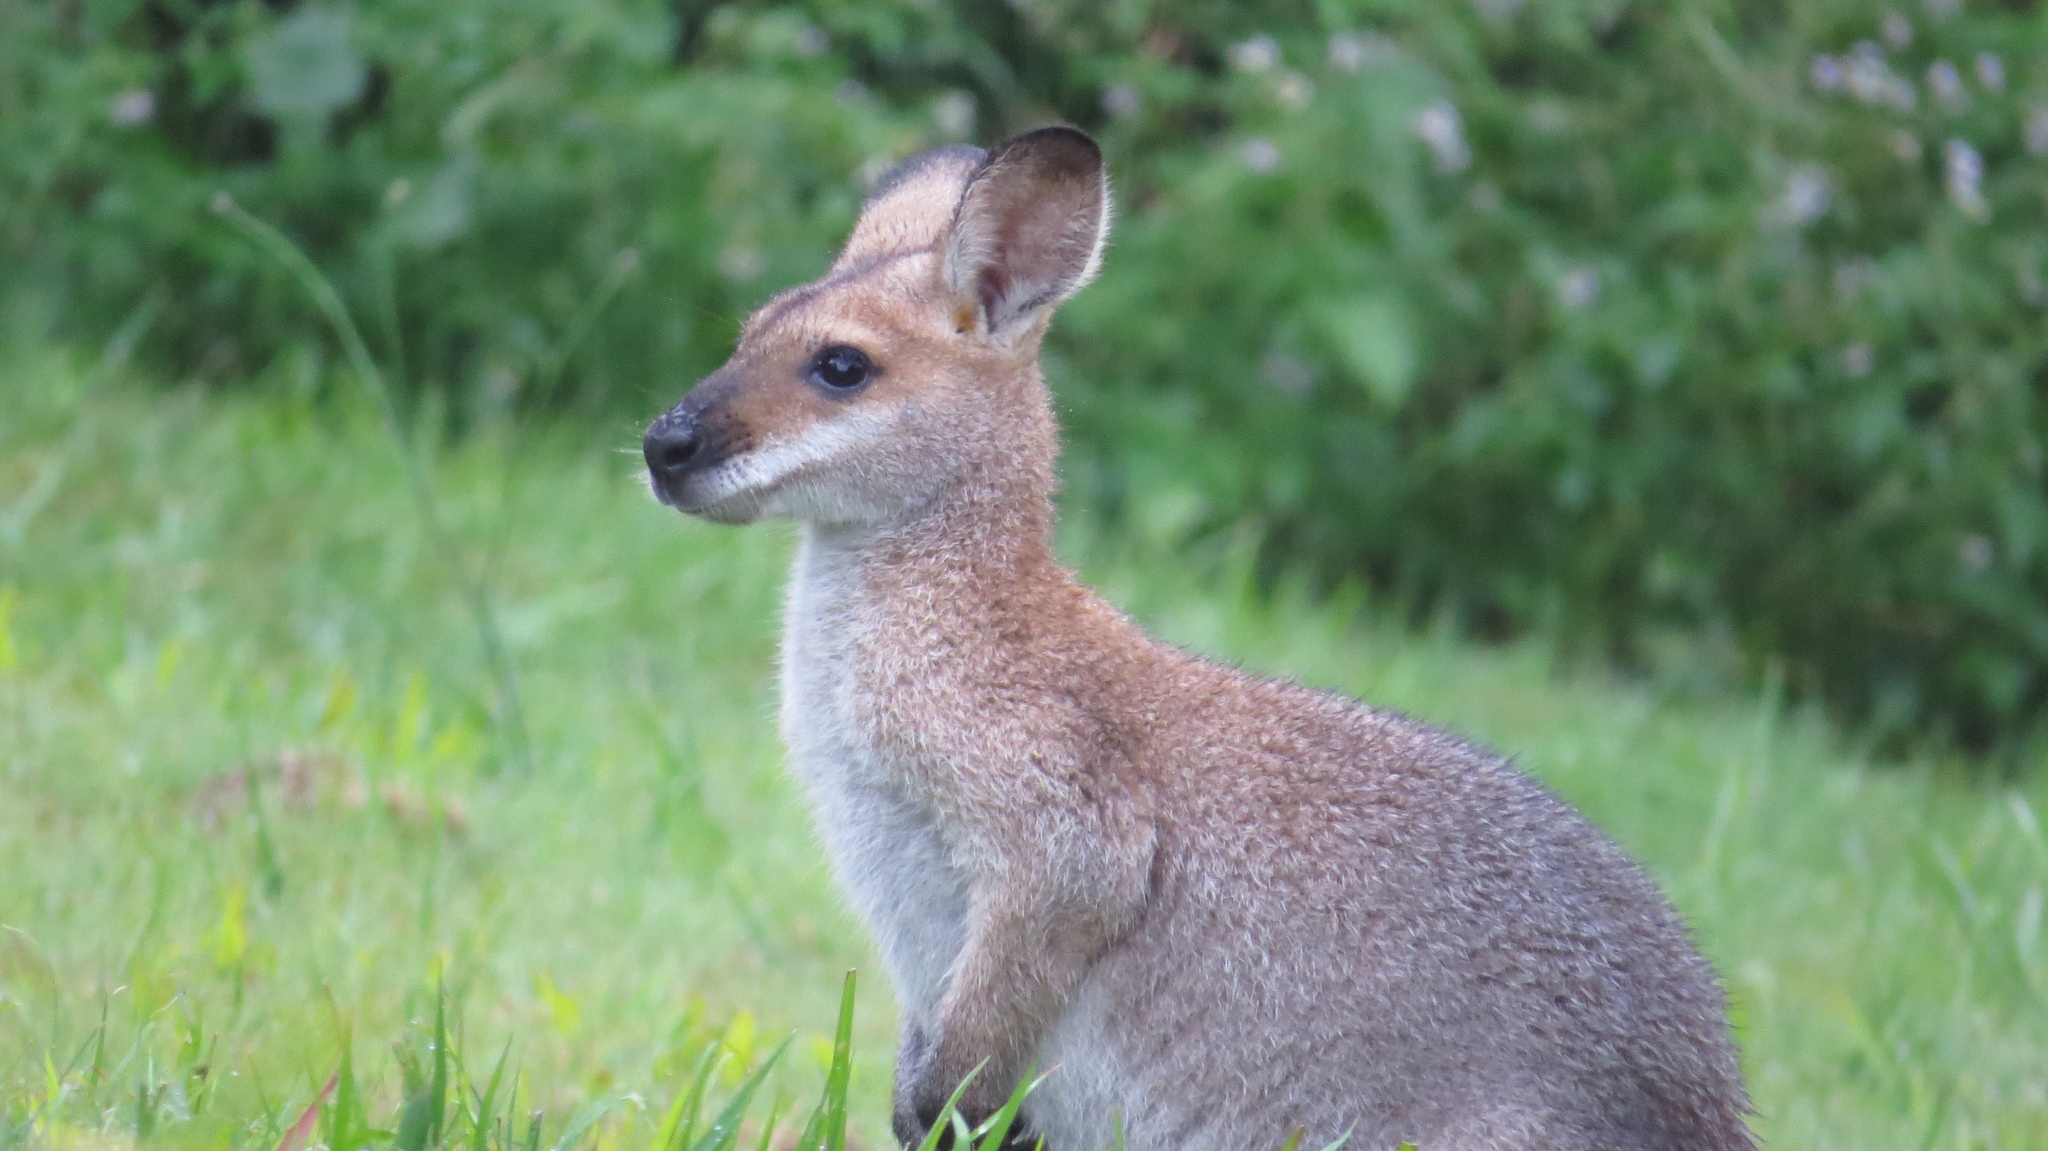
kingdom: Animalia
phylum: Chordata
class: Mammalia
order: Diprotodontia
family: Macropodidae
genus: Notamacropus
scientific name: Notamacropus rufogriseus
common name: Red-necked wallaby
